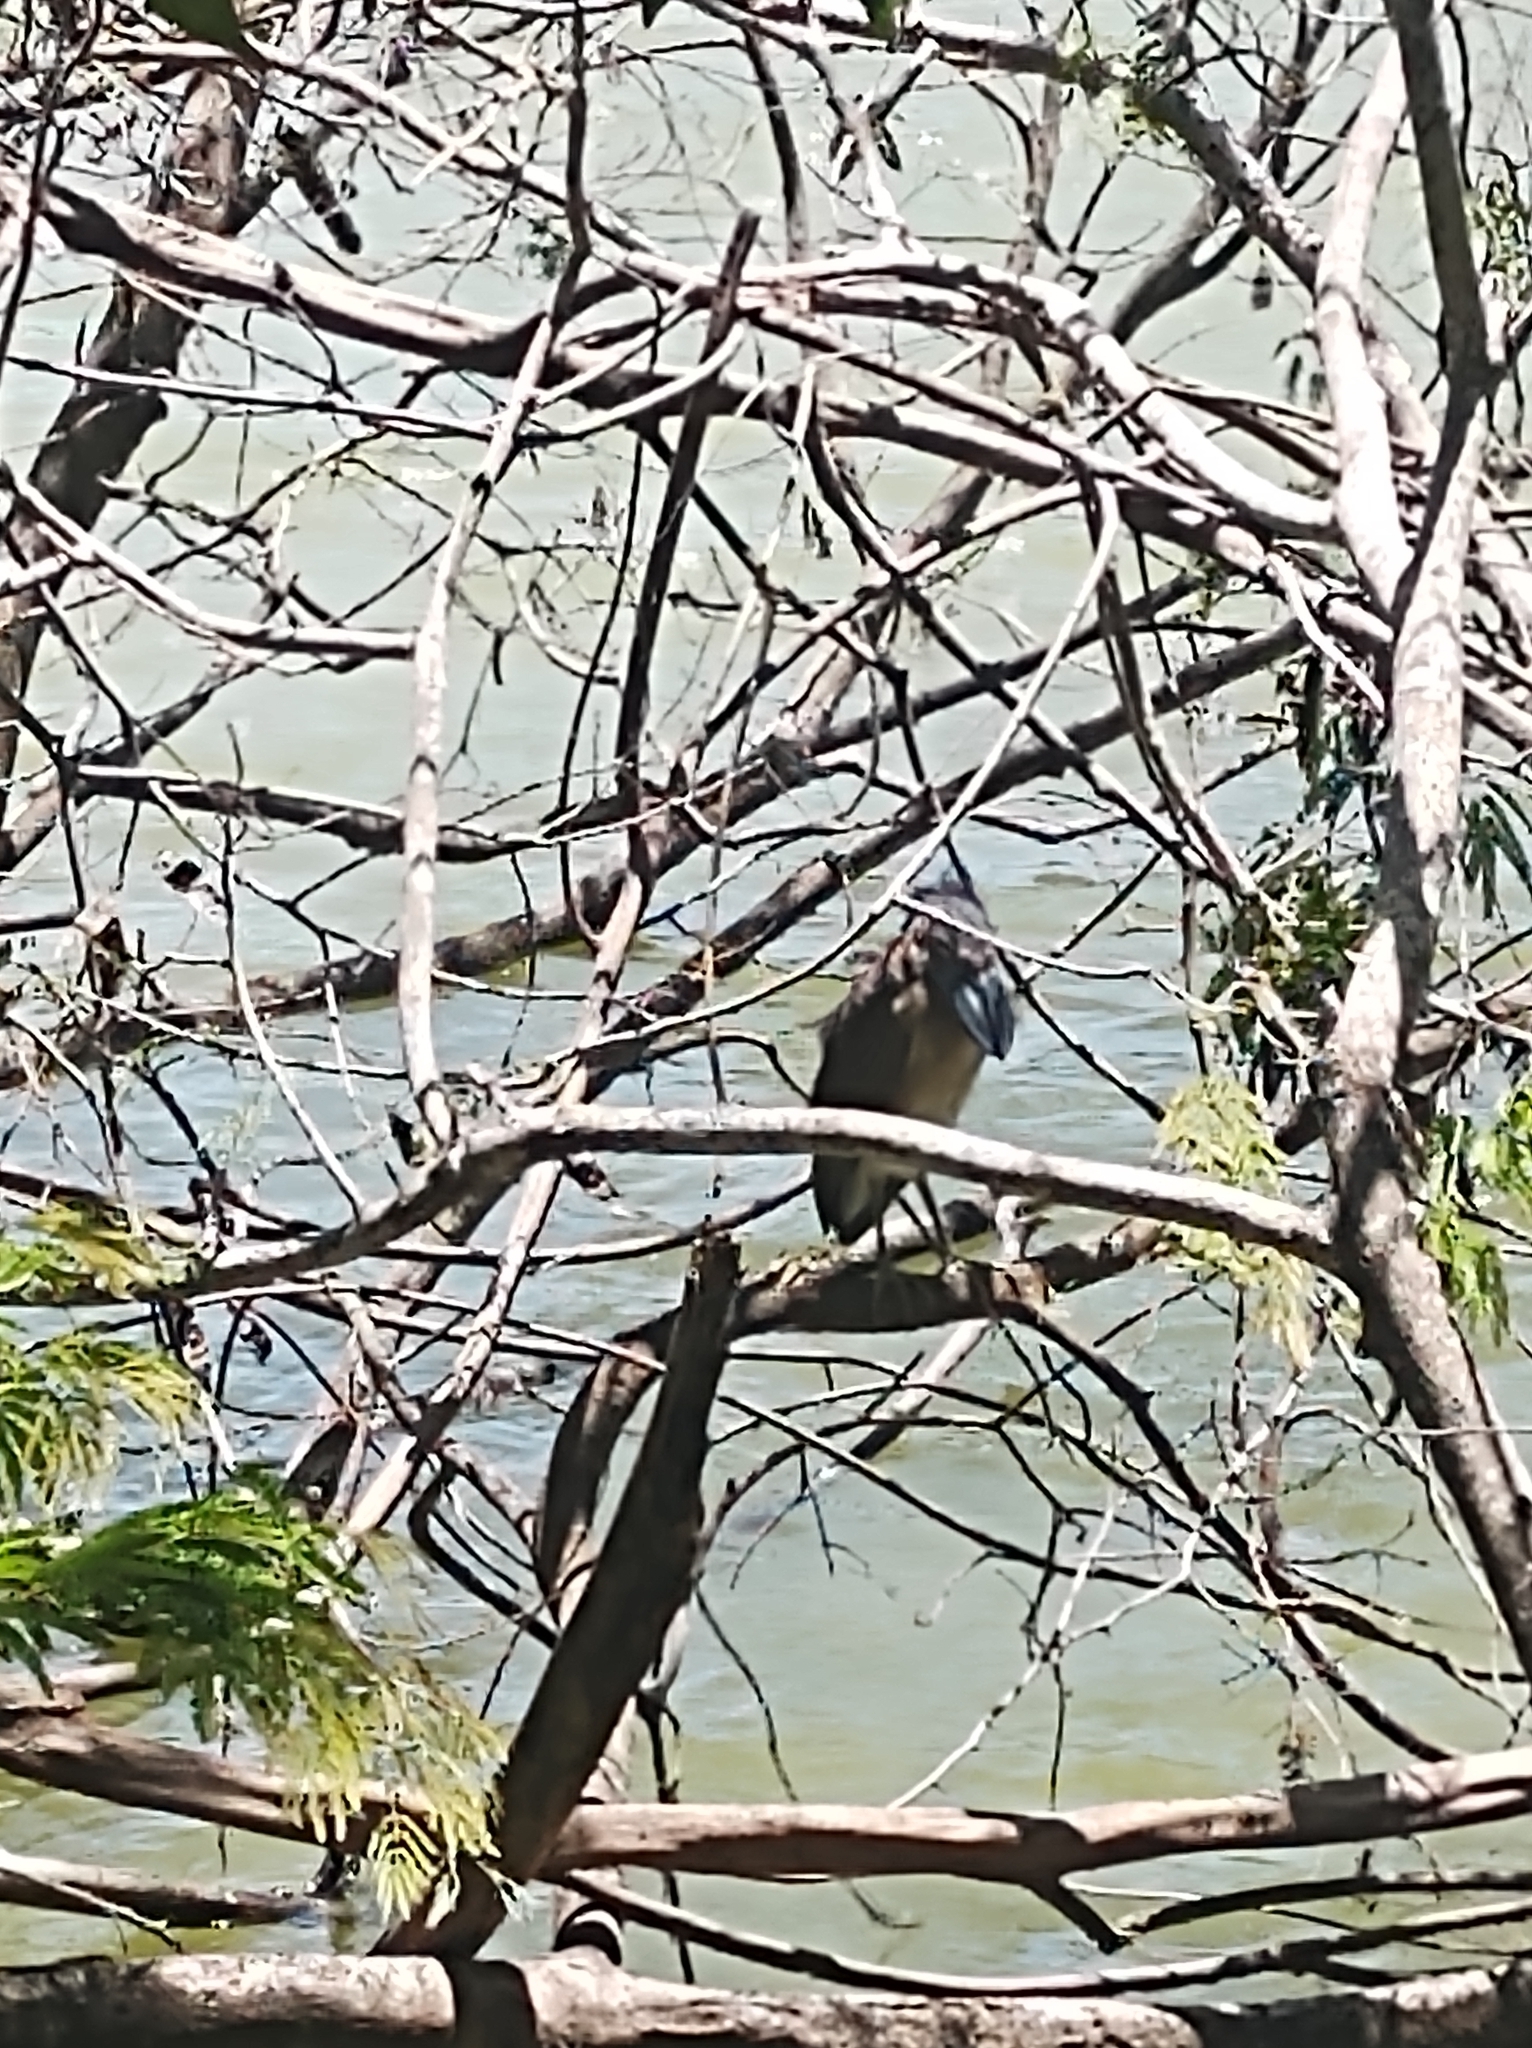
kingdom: Animalia
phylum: Chordata
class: Aves
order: Pelecaniformes
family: Ardeidae
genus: Cochlearius
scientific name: Cochlearius cochlearius
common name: Boat-billed heron
